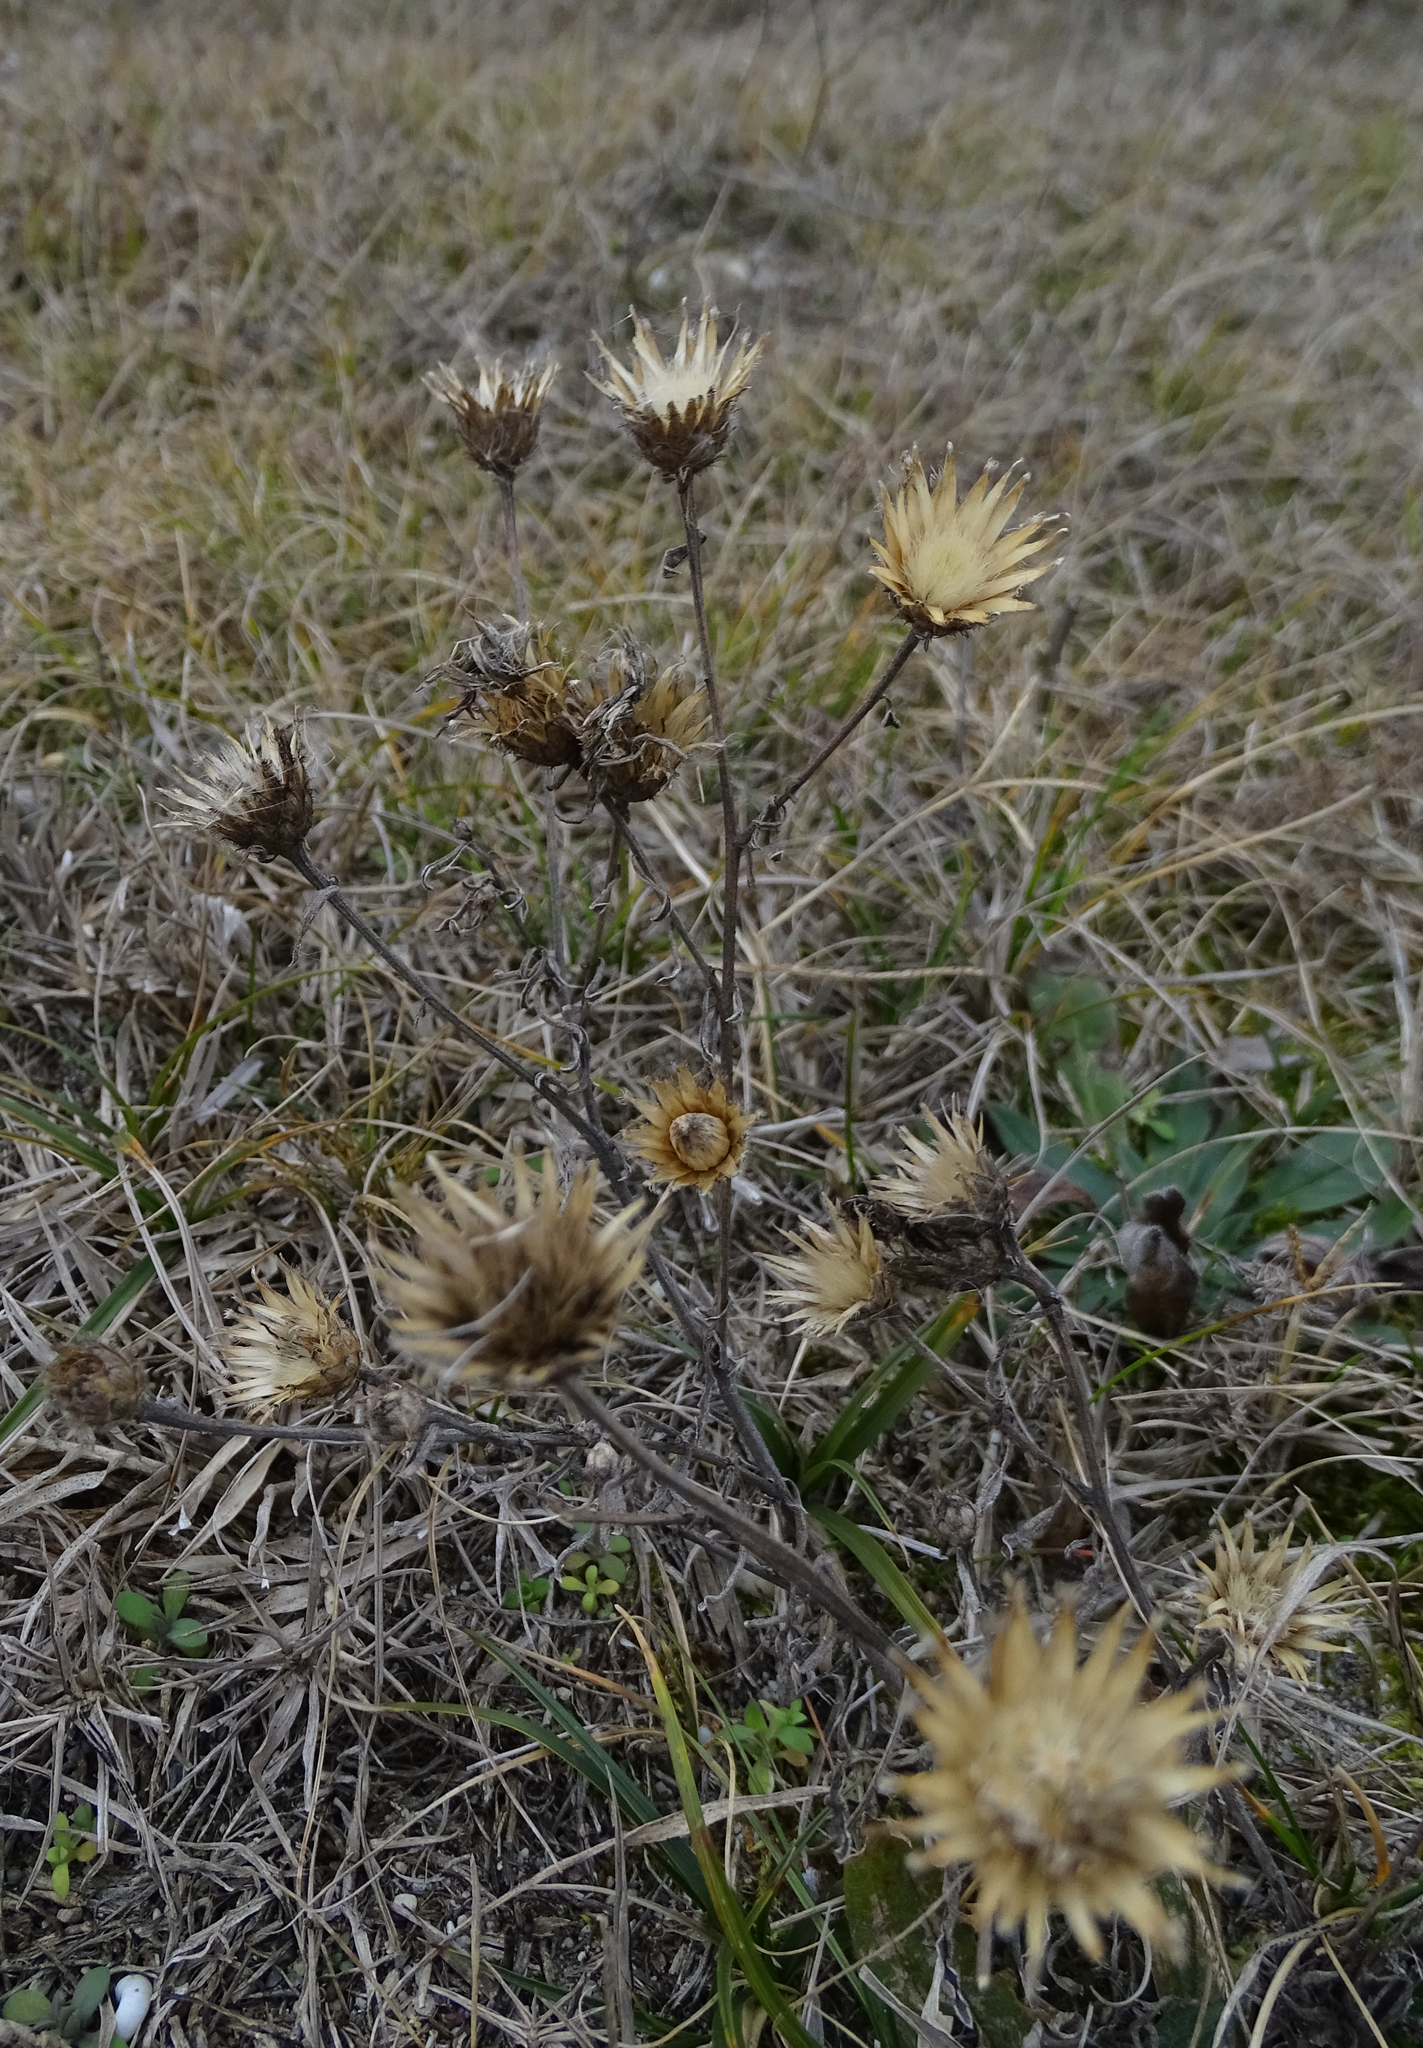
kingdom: Plantae
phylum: Tracheophyta
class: Magnoliopsida
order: Asterales
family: Asteraceae
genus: Centaurea
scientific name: Centaurea stoebe
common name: Spotted knapweed
